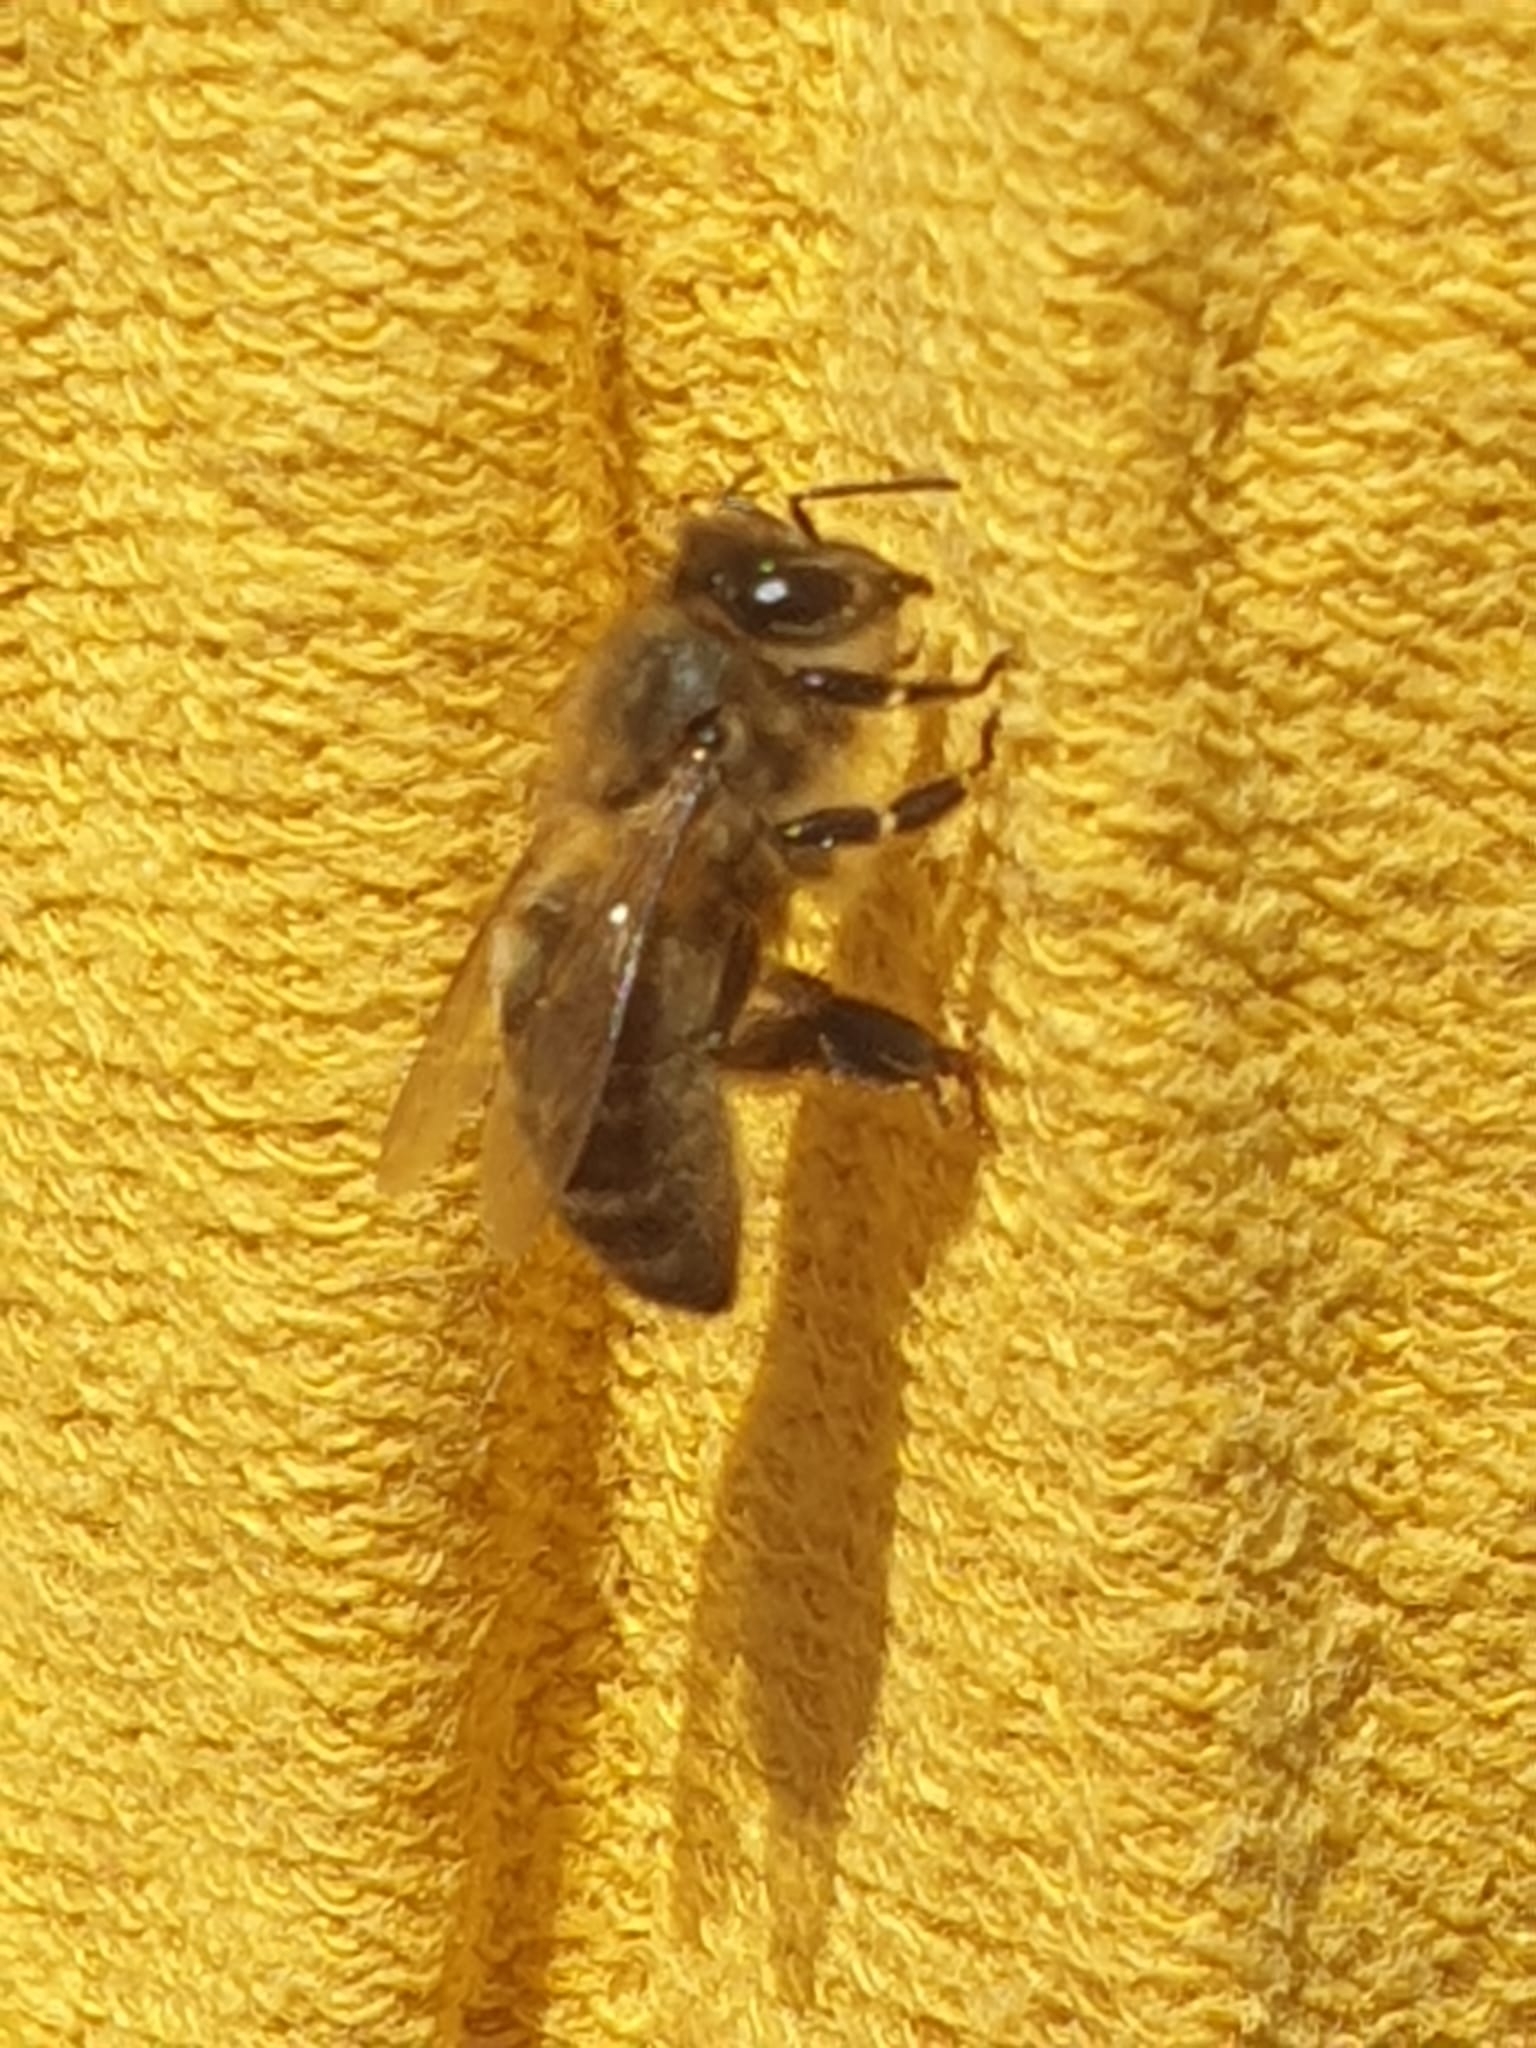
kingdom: Animalia
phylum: Arthropoda
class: Insecta
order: Hymenoptera
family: Apidae
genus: Apis
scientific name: Apis mellifera
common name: Honey bee
